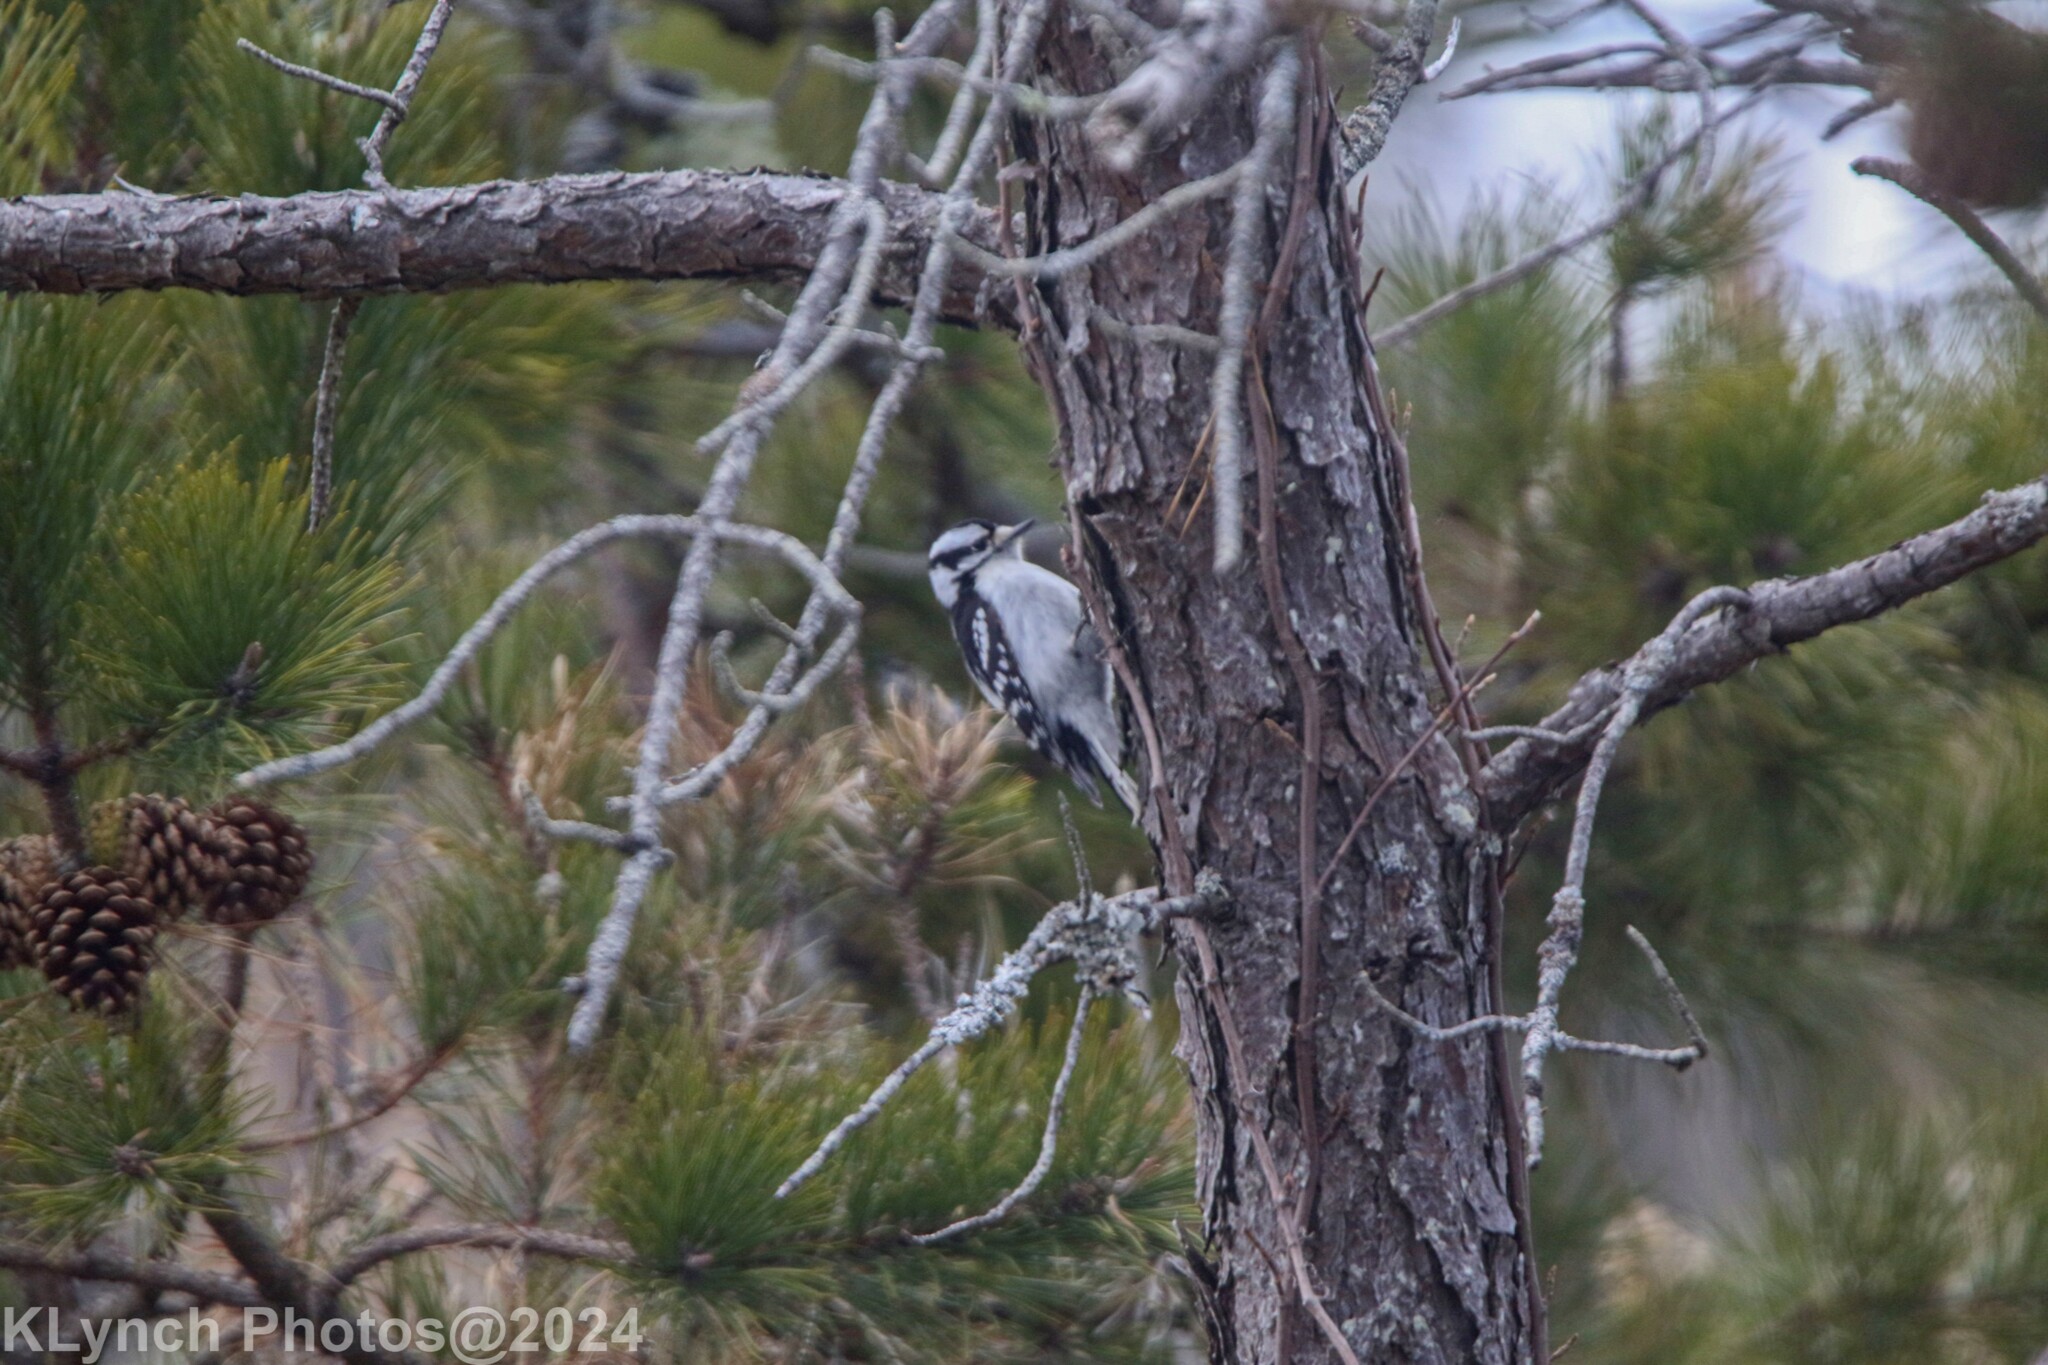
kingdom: Animalia
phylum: Chordata
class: Aves
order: Piciformes
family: Picidae
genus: Dryobates
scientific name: Dryobates pubescens
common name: Downy woodpecker
